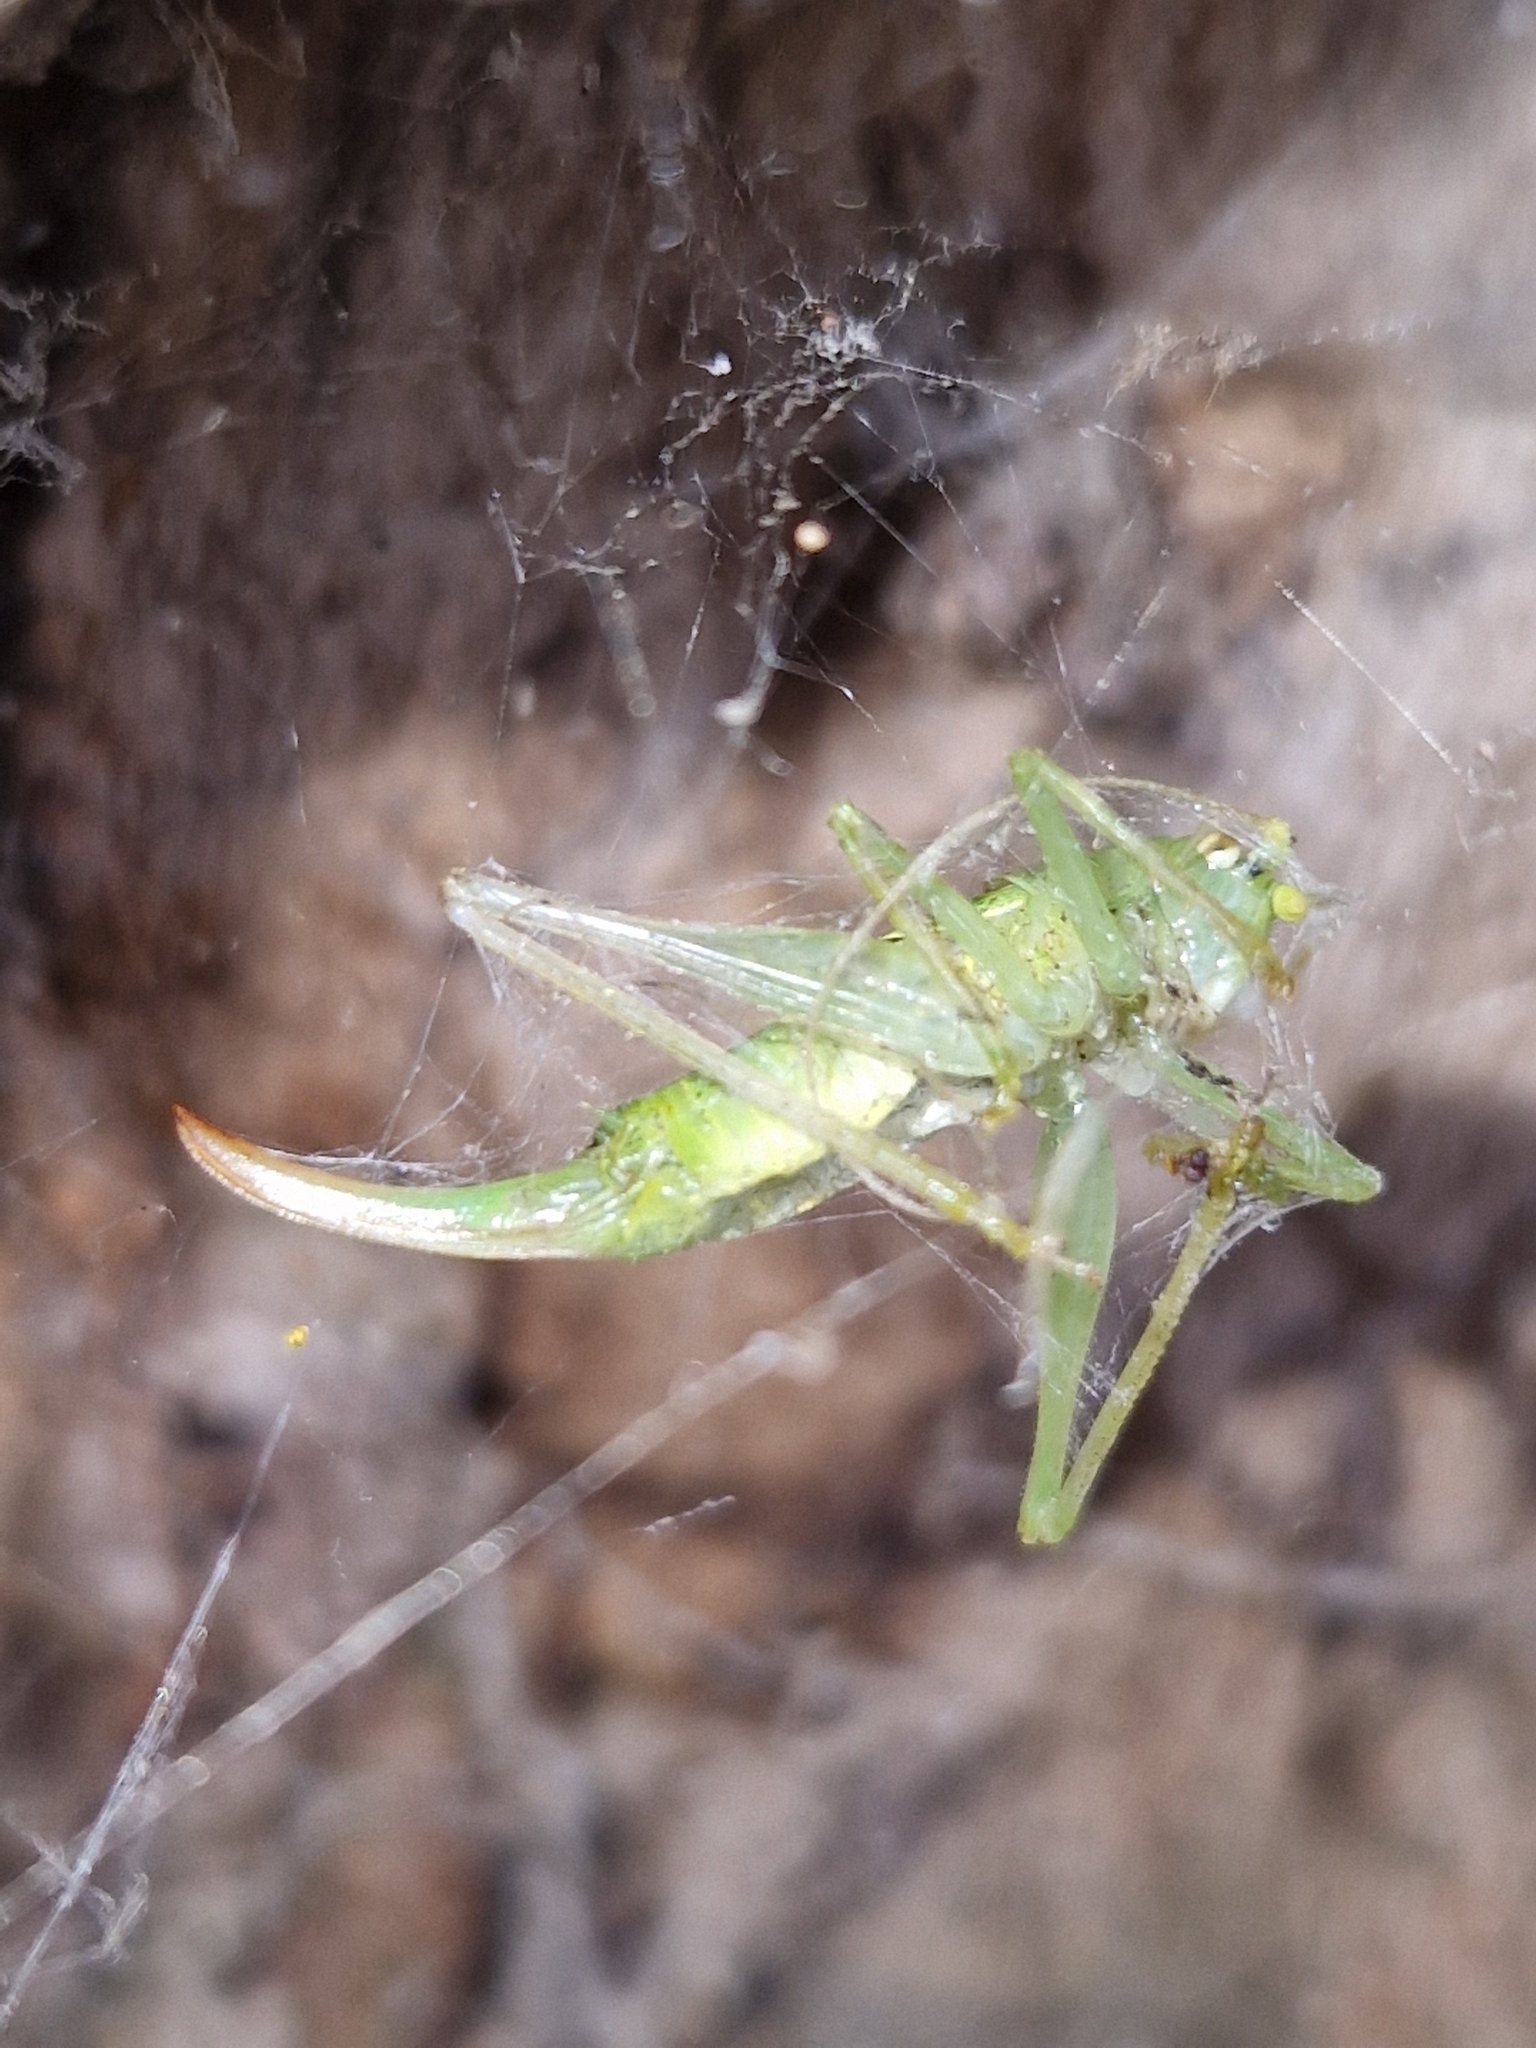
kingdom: Animalia
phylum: Arthropoda
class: Insecta
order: Orthoptera
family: Tettigoniidae
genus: Meconema
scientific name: Meconema meridionale
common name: Southern oak bush-cricket
